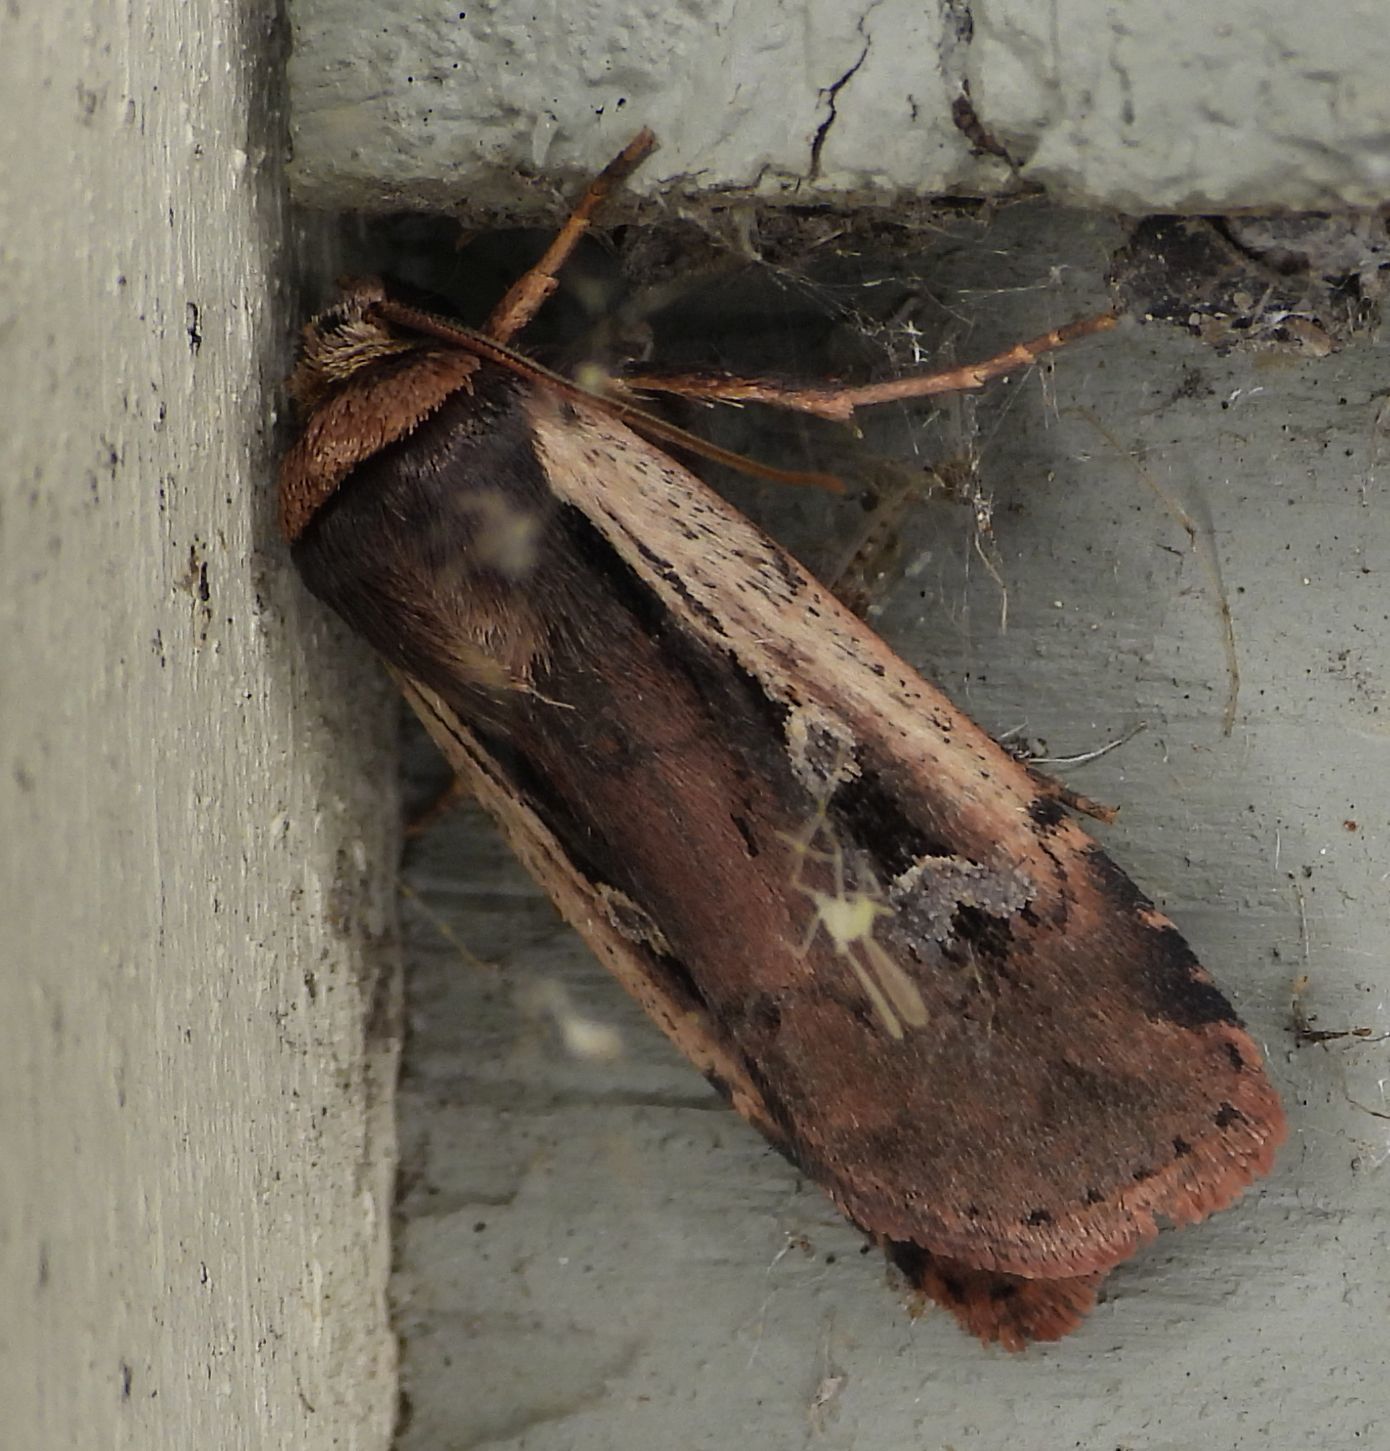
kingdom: Animalia
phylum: Arthropoda
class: Insecta
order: Lepidoptera
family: Noctuidae
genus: Ochropleura
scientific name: Ochropleura implecta
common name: Flame-shouldered dart
